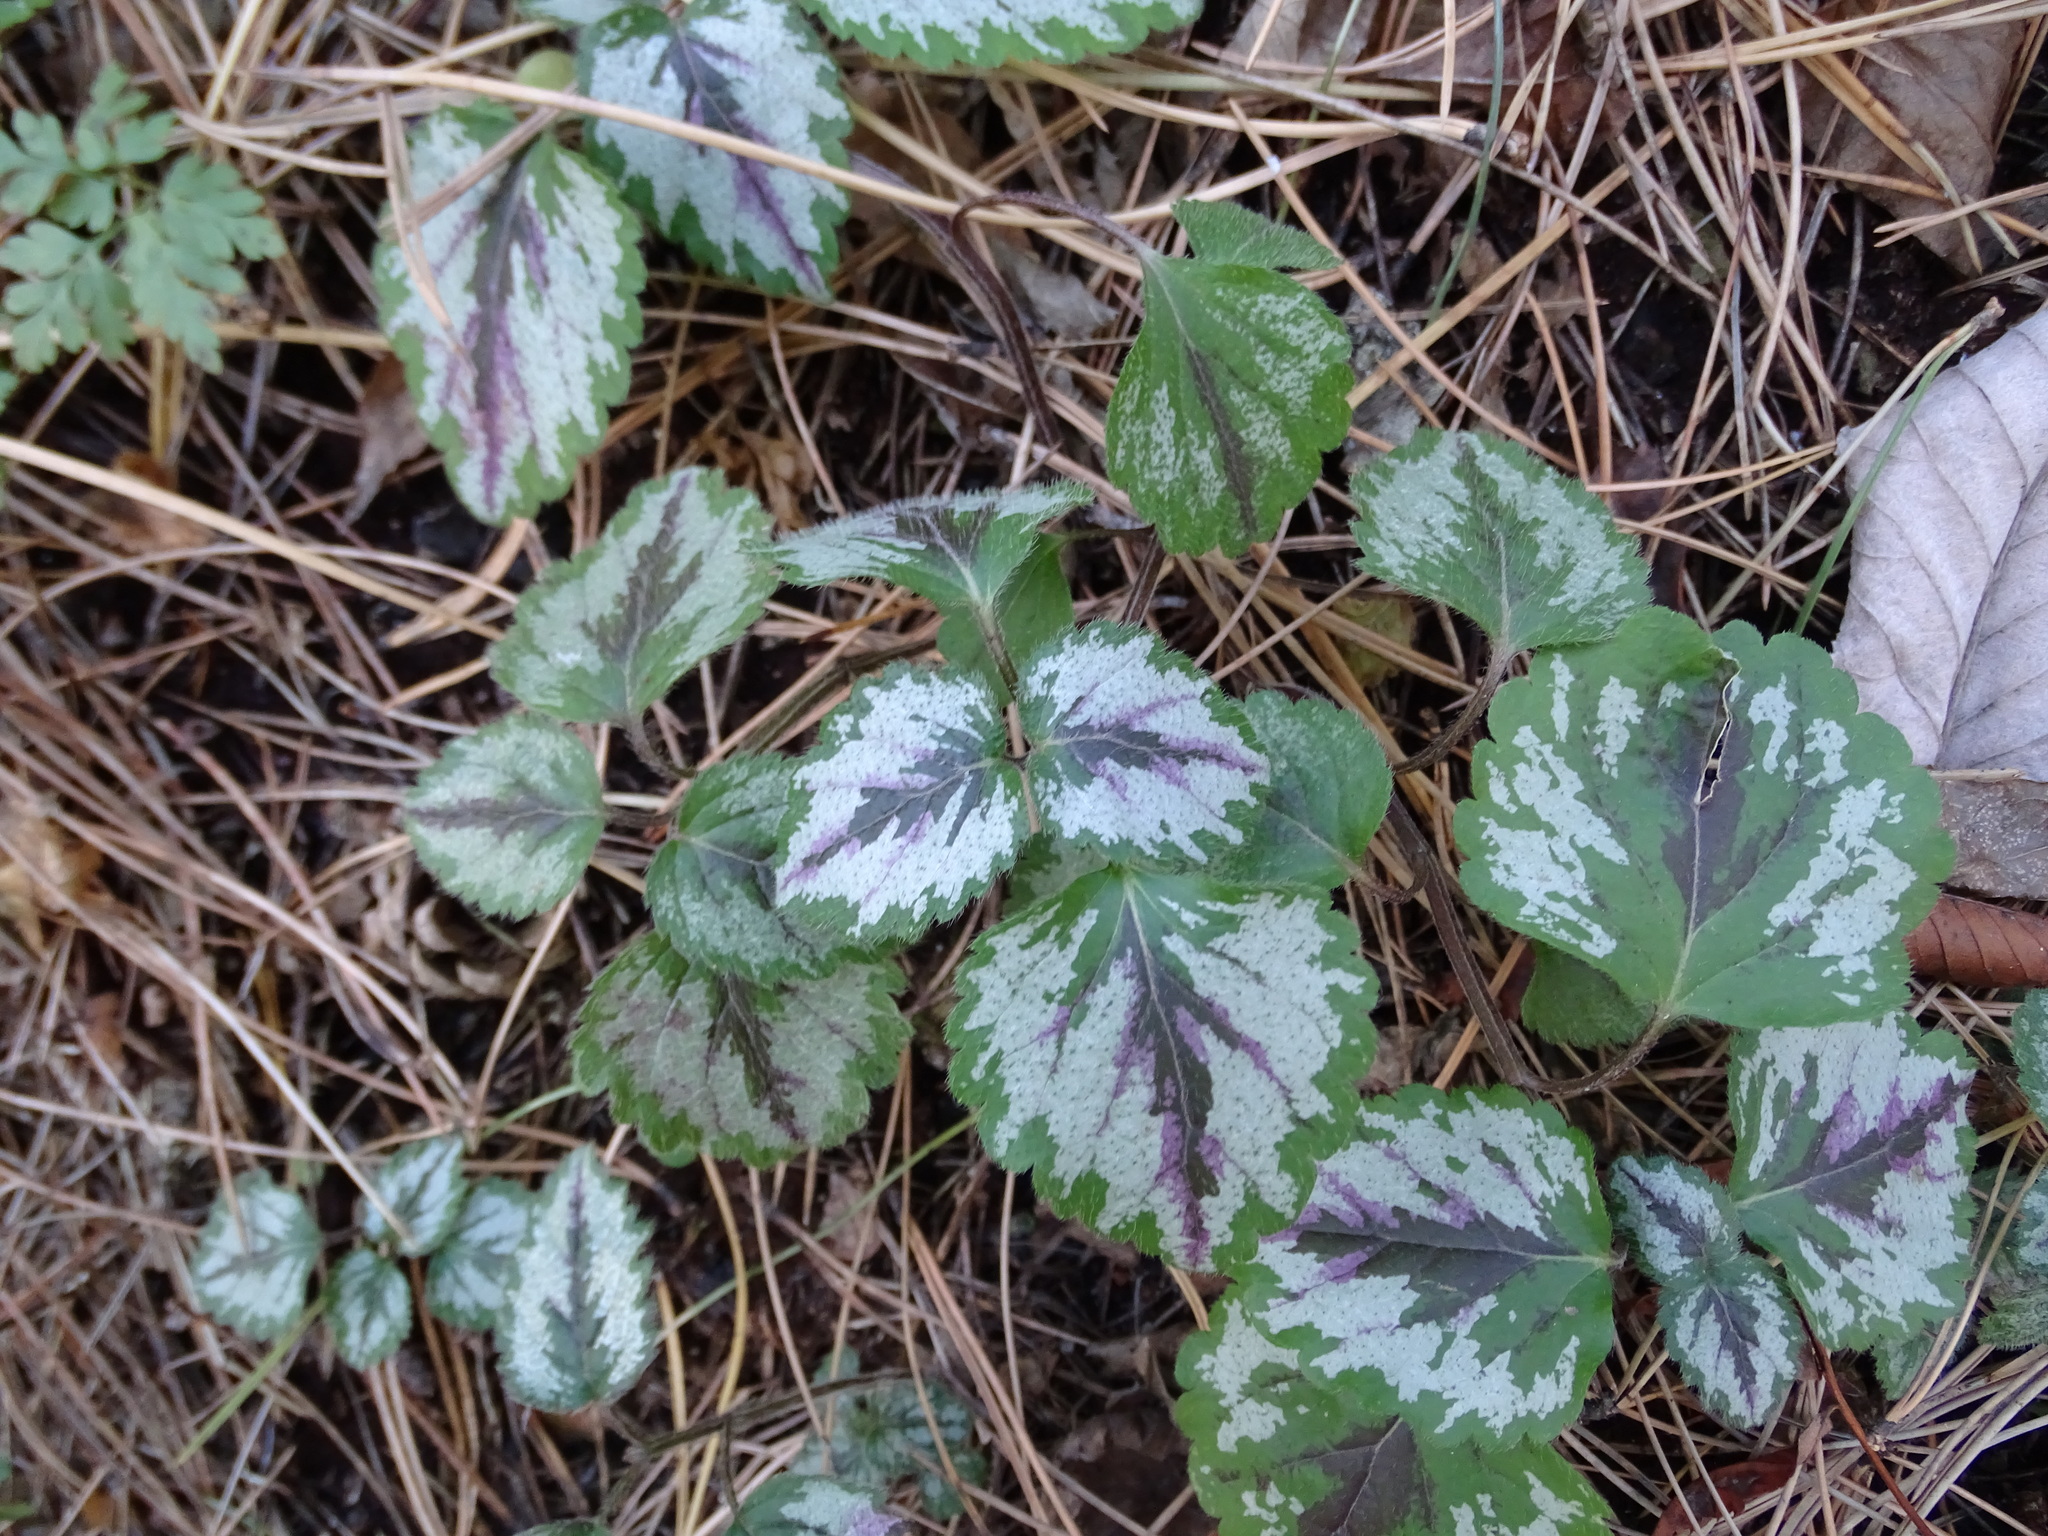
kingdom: Plantae
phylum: Tracheophyta
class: Magnoliopsida
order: Lamiales
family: Lamiaceae
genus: Lamium
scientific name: Lamium galeobdolon
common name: Yellow archangel
